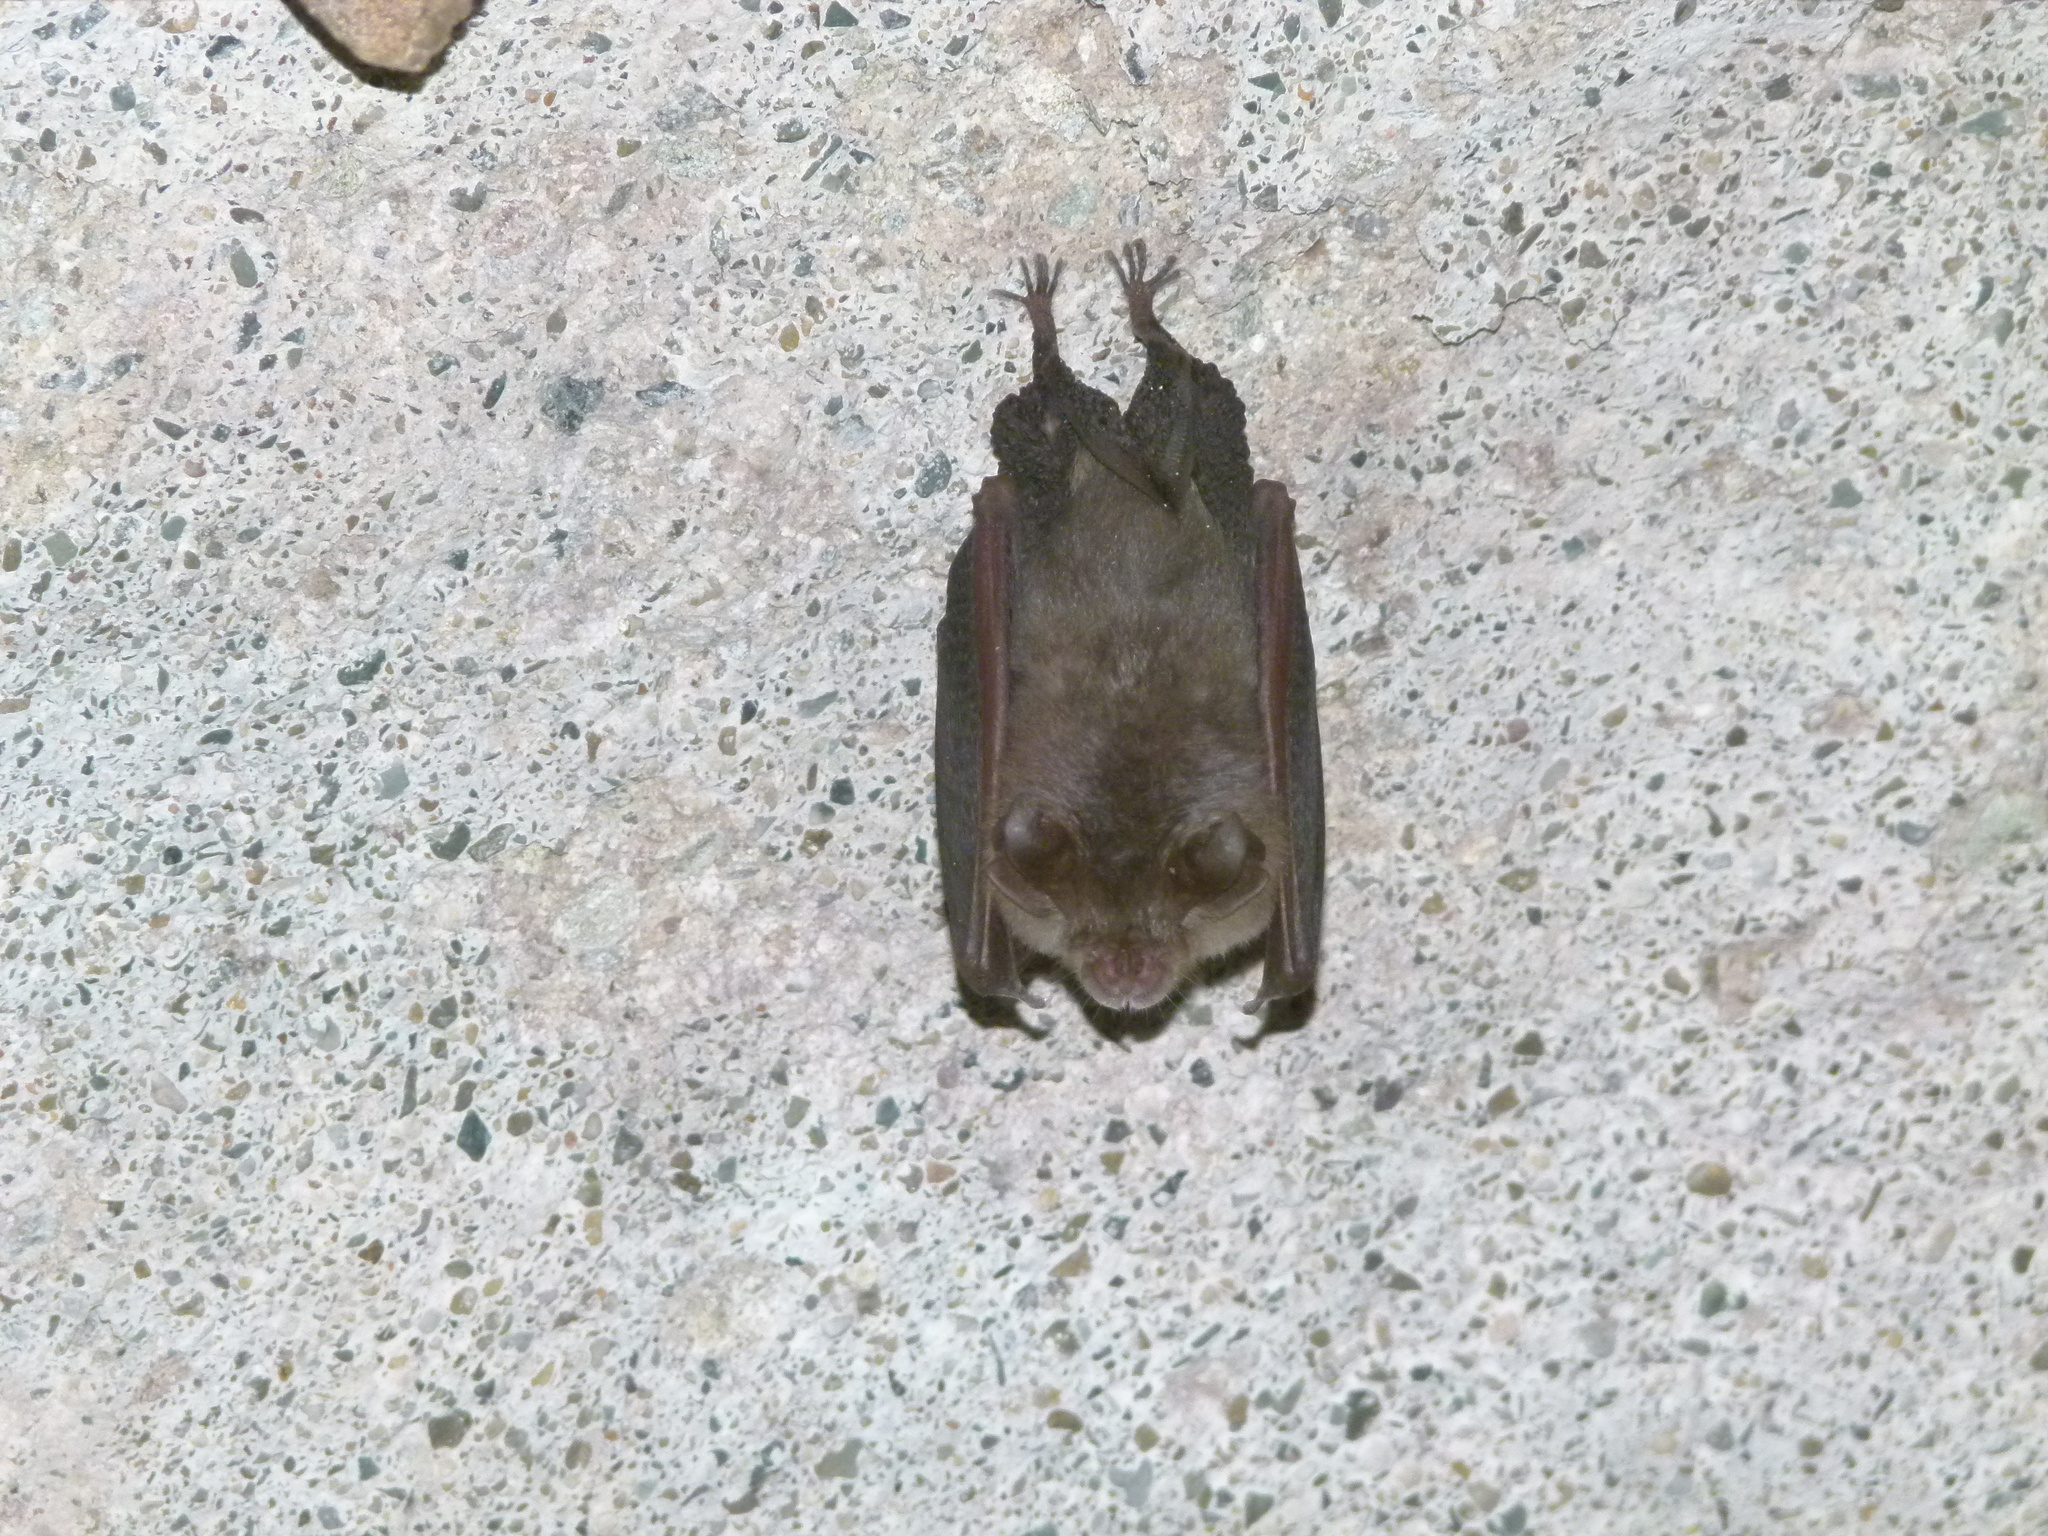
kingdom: Animalia
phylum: Chordata
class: Mammalia
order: Chiroptera
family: Rhinolophidae
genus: Rhinolophus
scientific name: Rhinolophus hipposideros
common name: Lesser horseshoe bat
